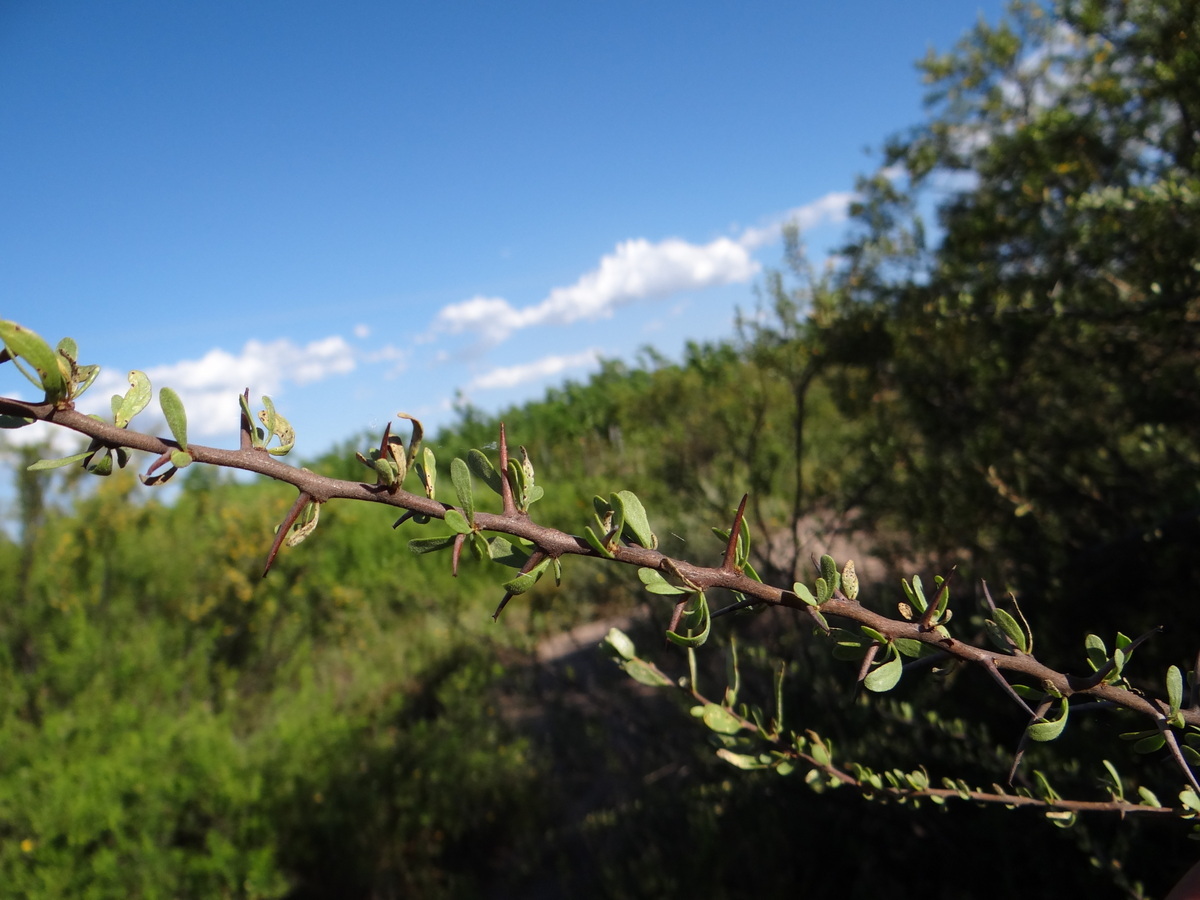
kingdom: Plantae
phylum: Tracheophyta
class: Magnoliopsida
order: Caryophyllales
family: Nyctaginaceae
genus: Bougainvillea
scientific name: Bougainvillea spinosa
